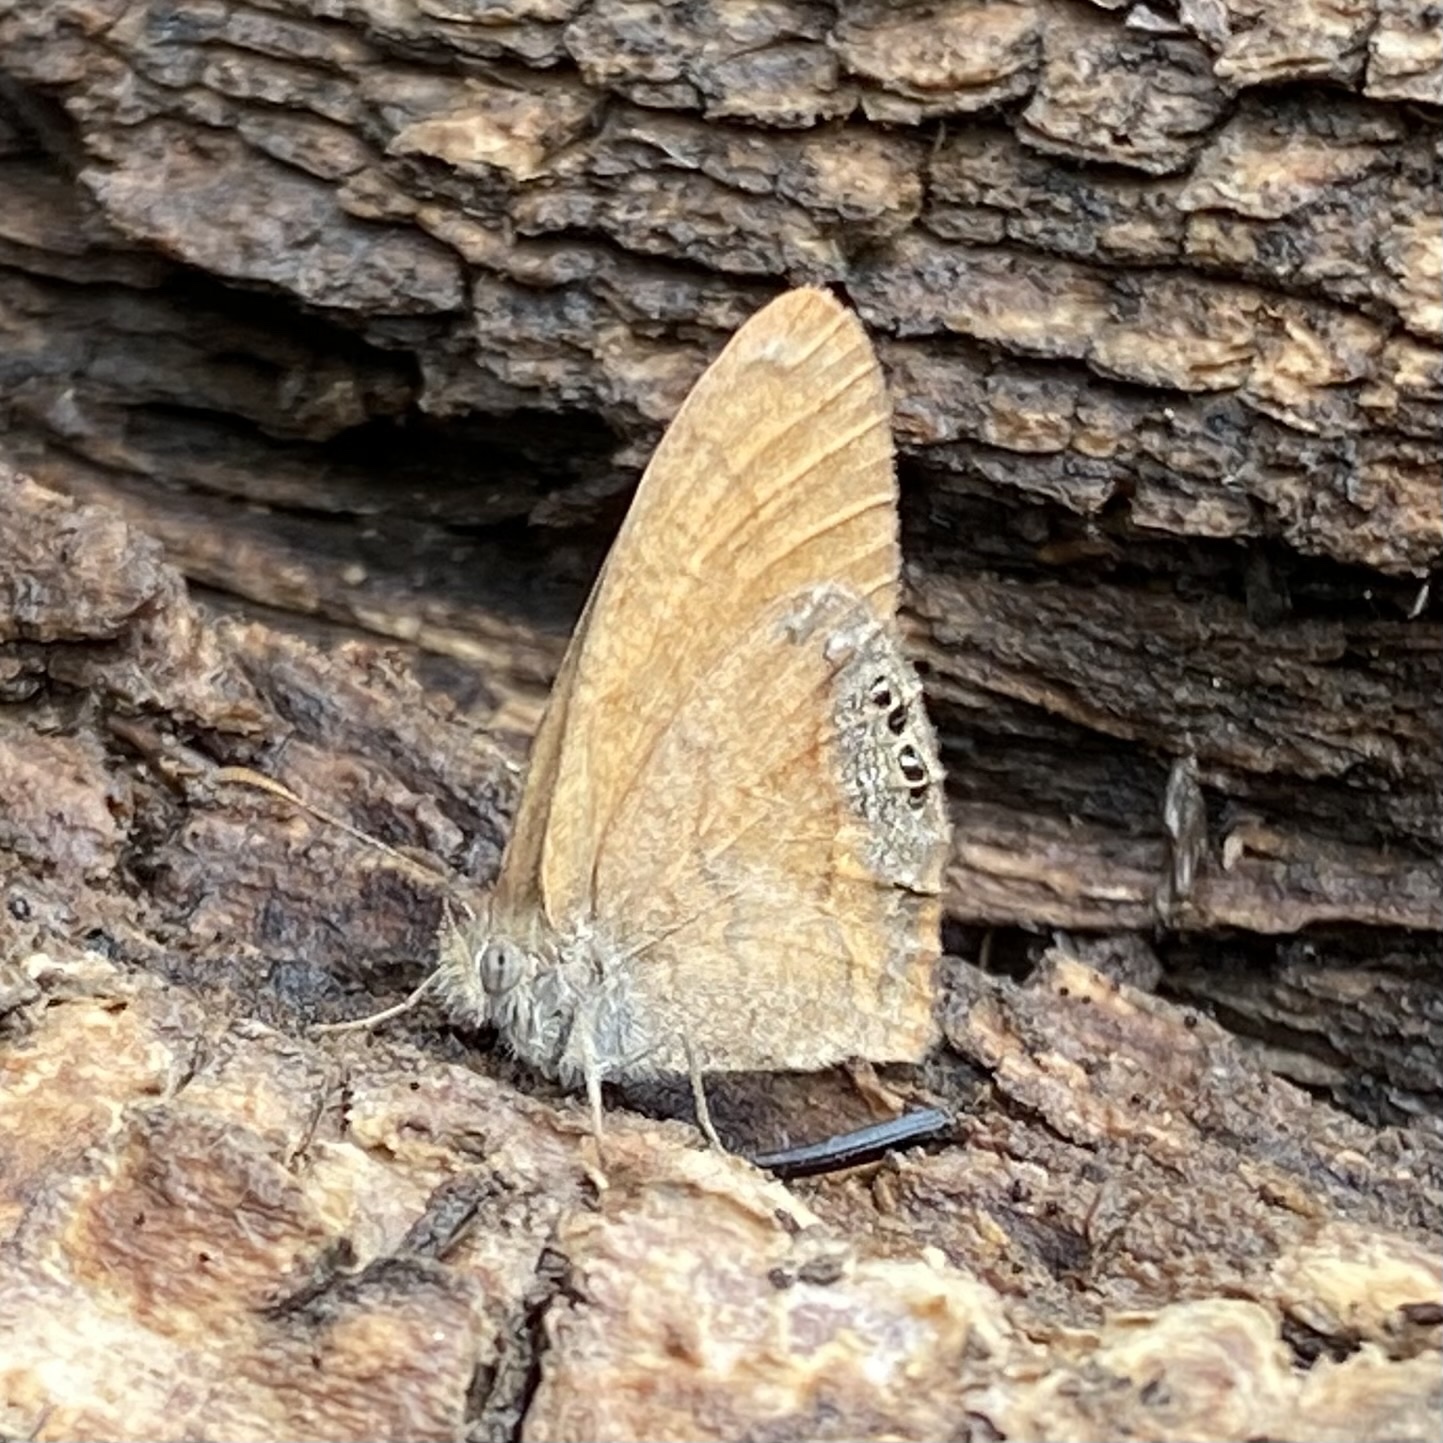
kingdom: Animalia
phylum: Arthropoda
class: Insecta
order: Lepidoptera
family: Nymphalidae
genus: Euptychia
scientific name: Euptychia Cyllopsis pertepida
